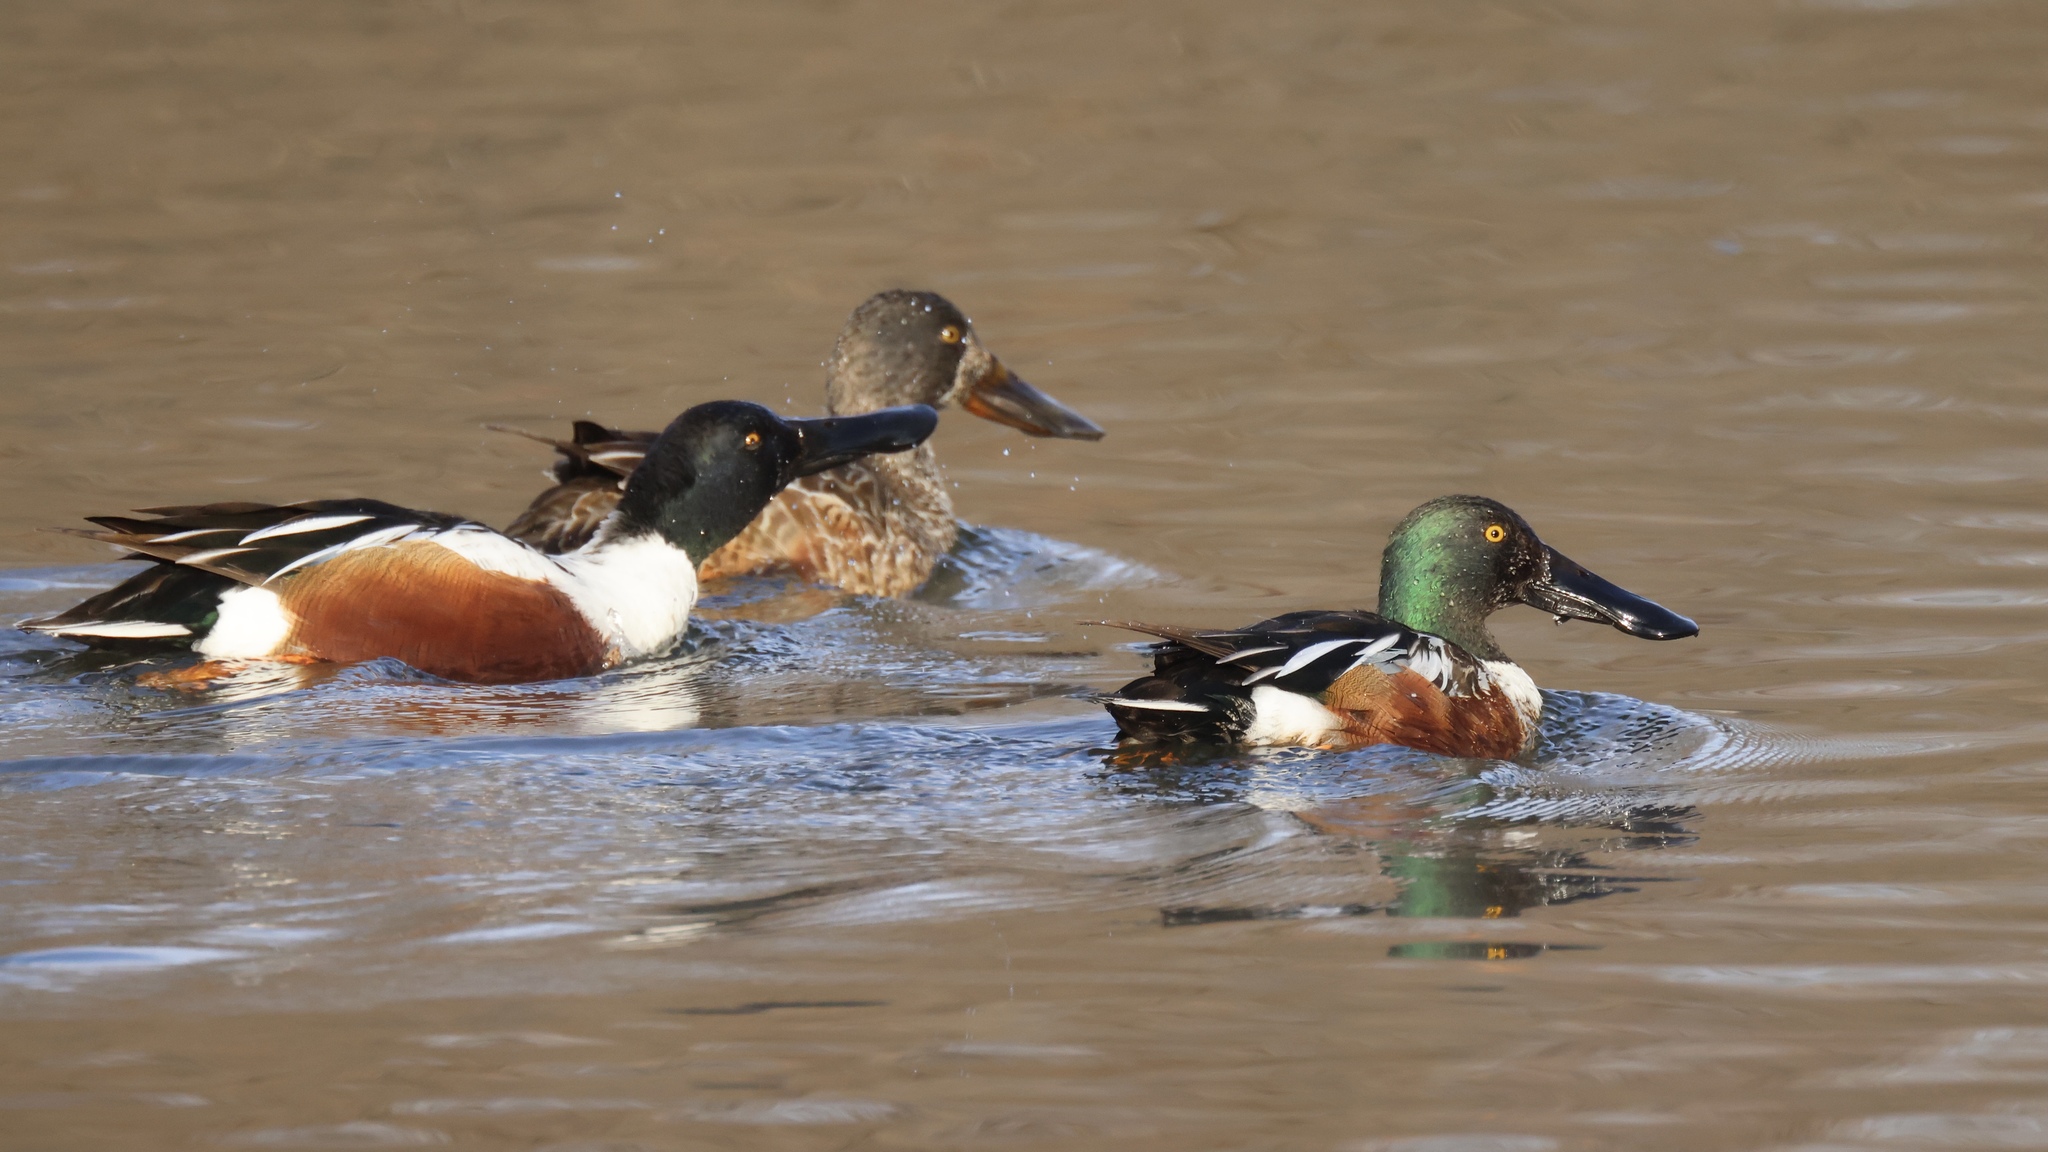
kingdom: Animalia
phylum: Chordata
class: Aves
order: Anseriformes
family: Anatidae
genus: Spatula
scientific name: Spatula clypeata
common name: Northern shoveler
